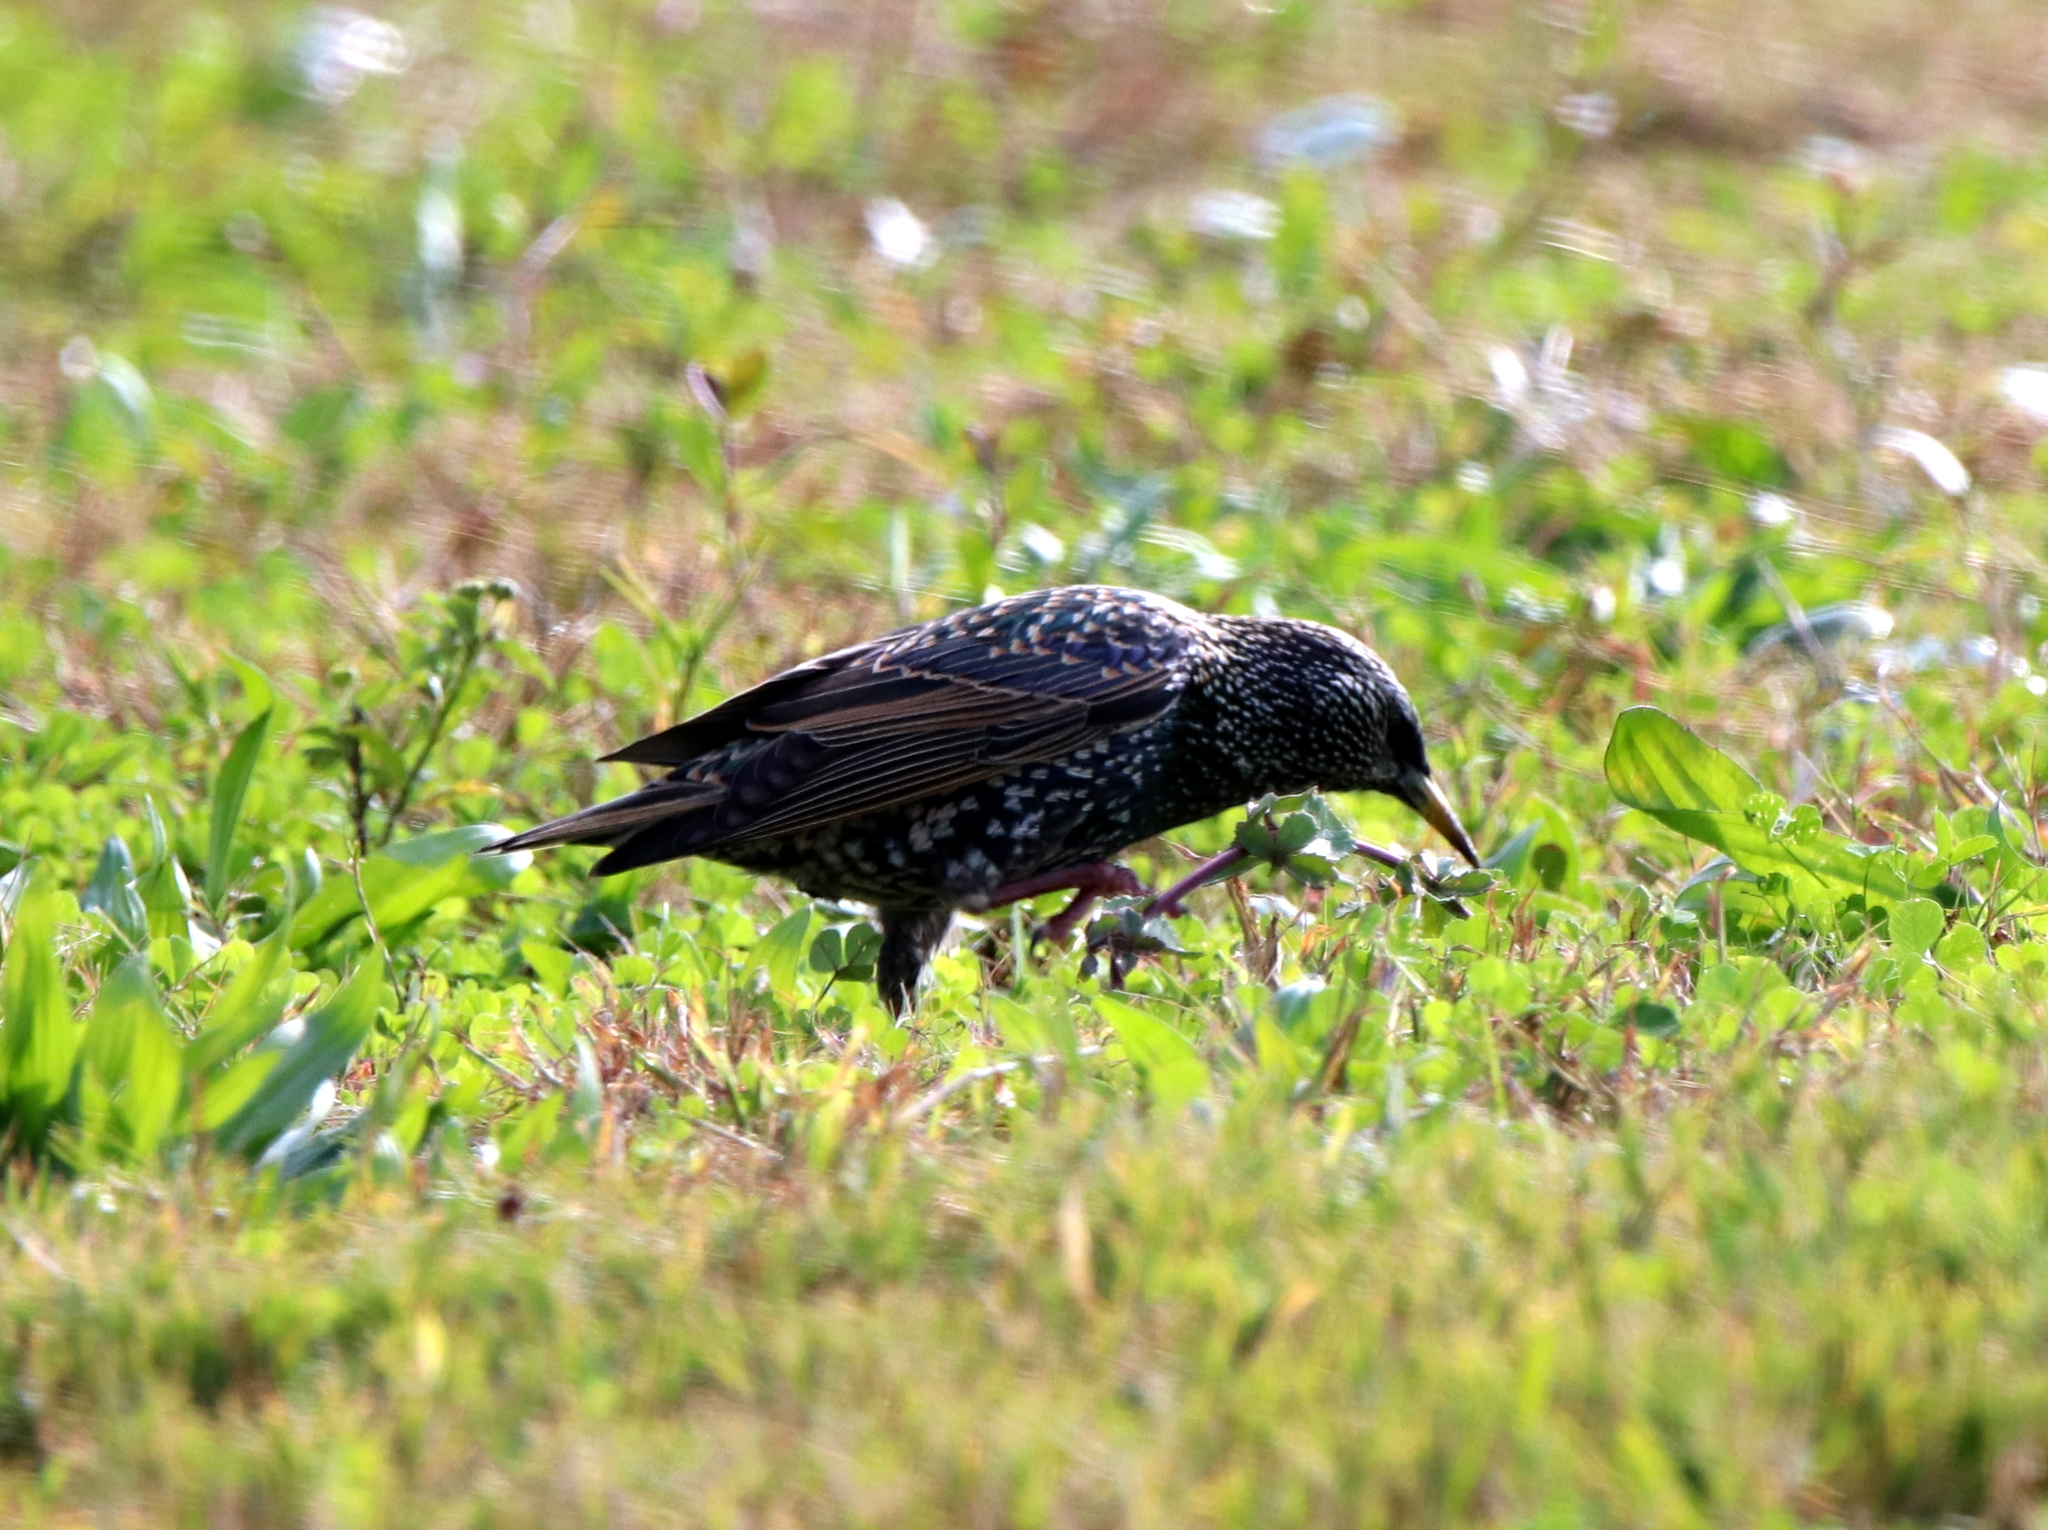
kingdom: Animalia
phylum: Chordata
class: Aves
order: Passeriformes
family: Sturnidae
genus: Sturnus
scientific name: Sturnus vulgaris
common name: Common starling
